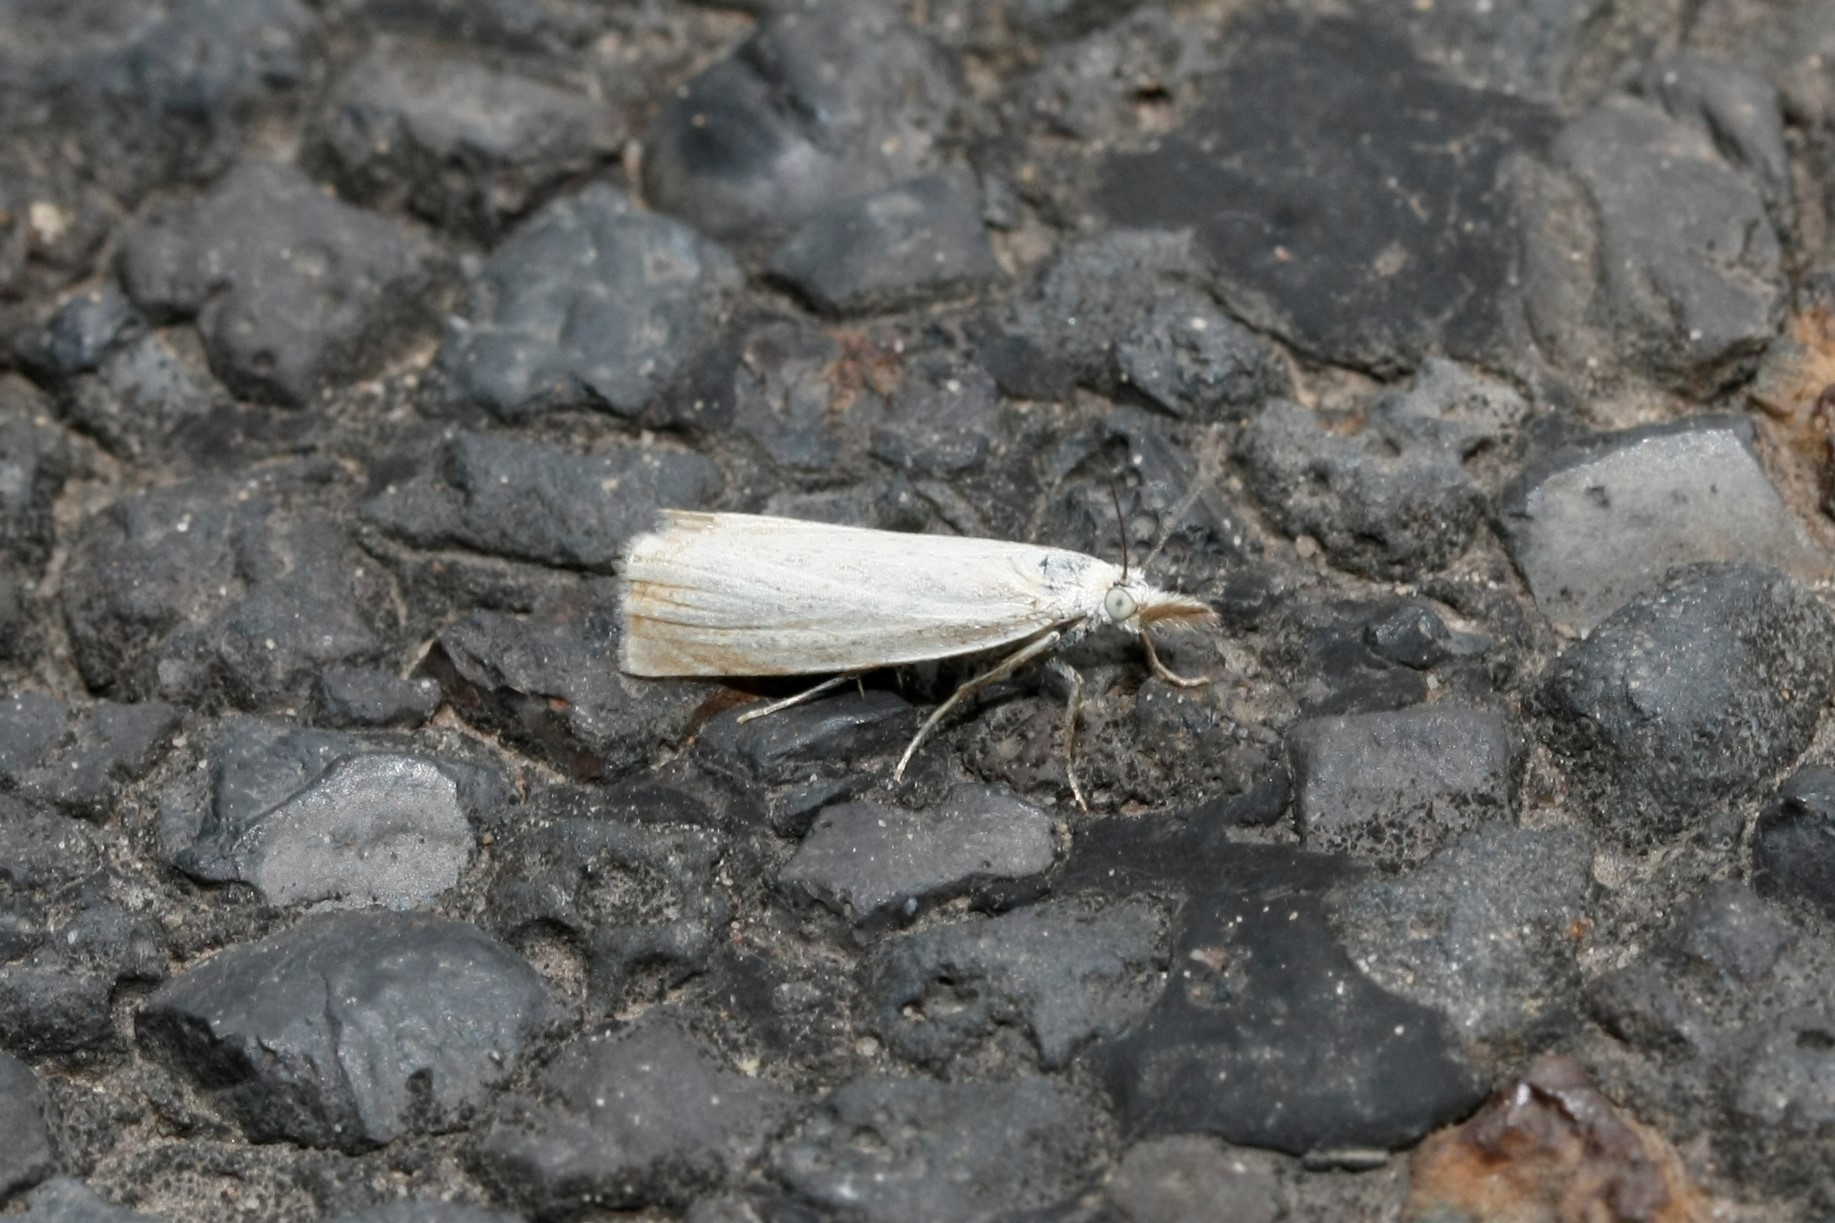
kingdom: Animalia
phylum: Arthropoda
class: Insecta
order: Lepidoptera
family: Crambidae
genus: Chrysoteuchia
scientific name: Chrysoteuchia culmella
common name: Garden grass-veneer
